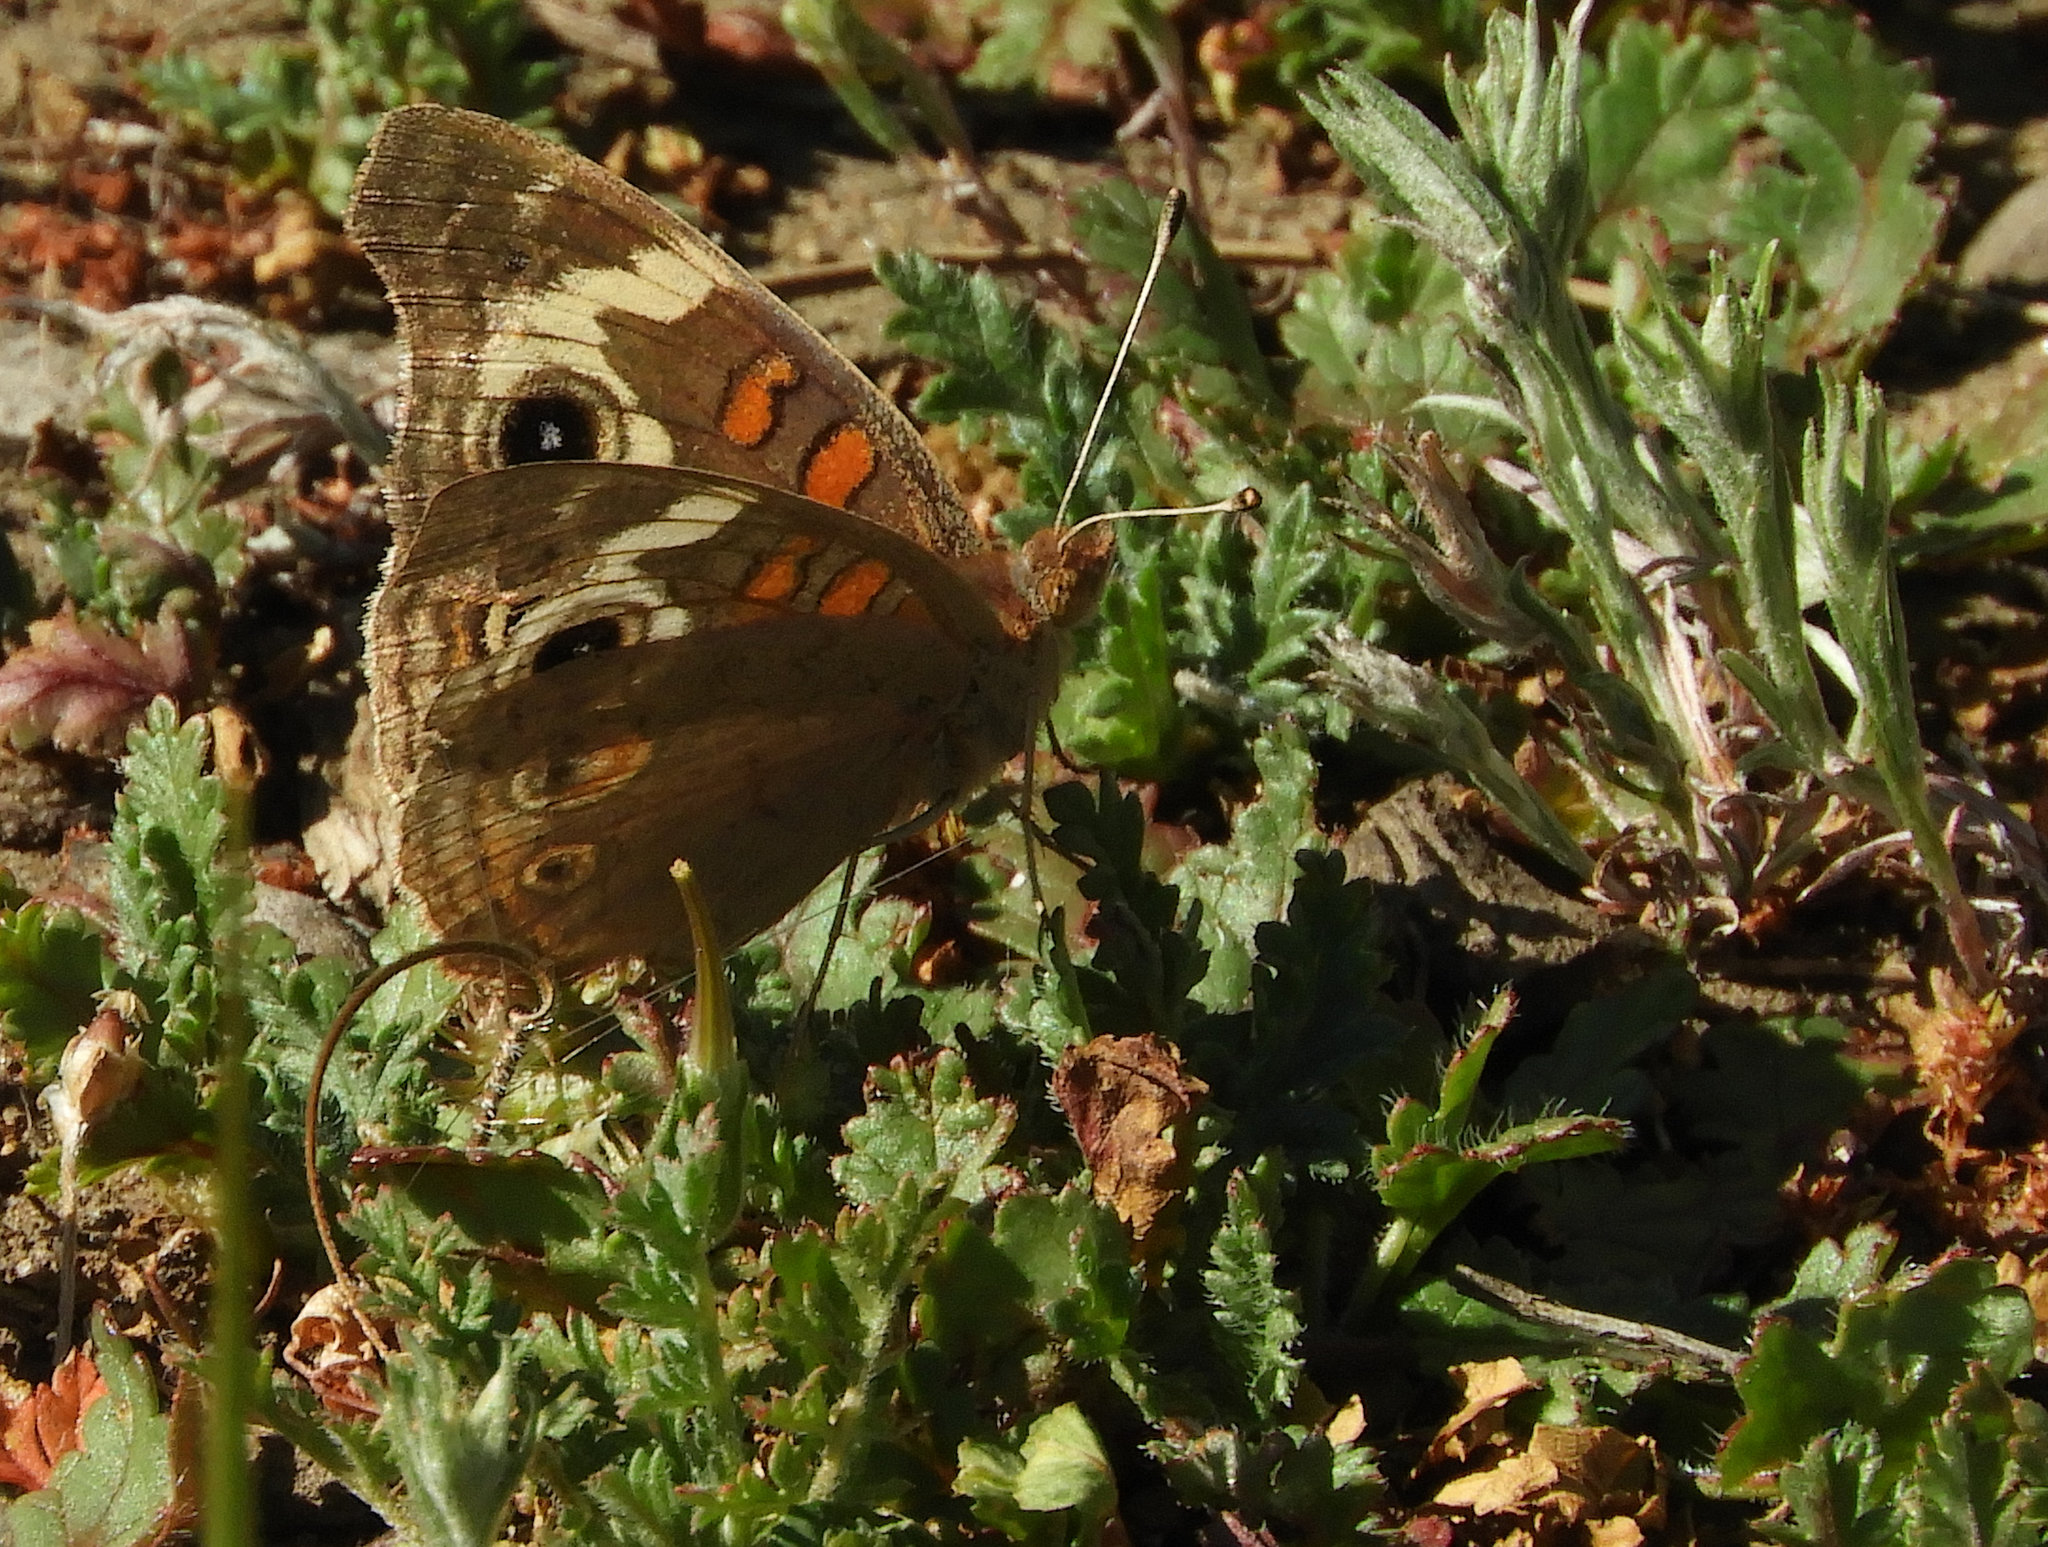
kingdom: Animalia
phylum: Arthropoda
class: Insecta
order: Lepidoptera
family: Nymphalidae
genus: Junonia
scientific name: Junonia grisea
